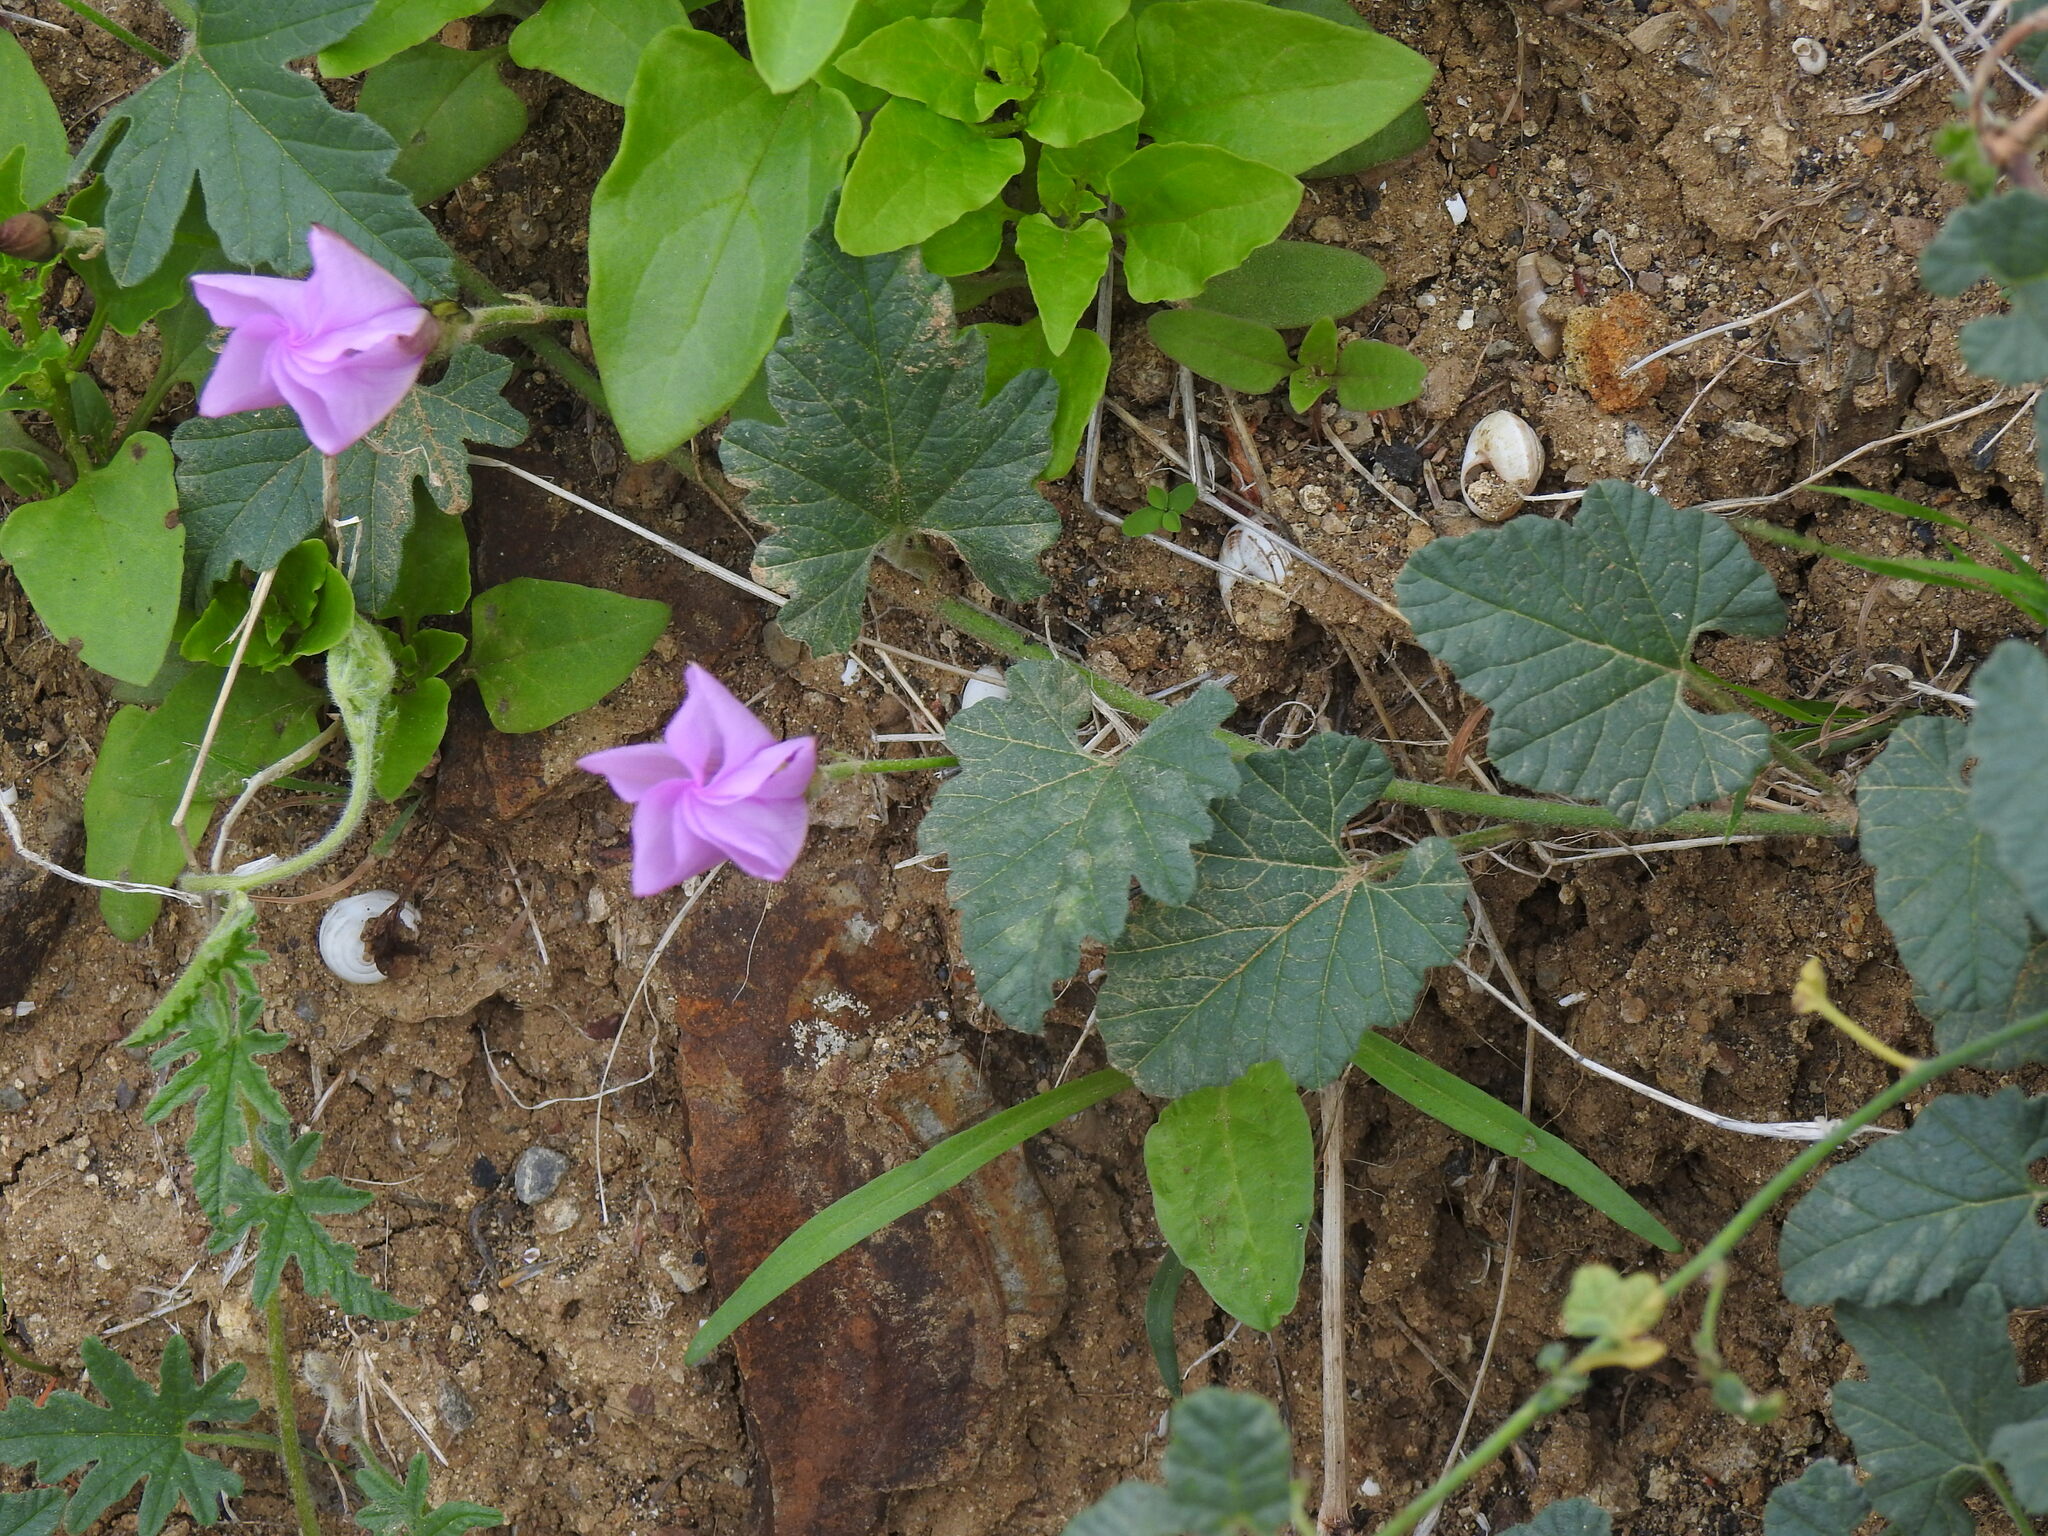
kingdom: Plantae
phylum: Tracheophyta
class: Magnoliopsida
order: Solanales
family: Convolvulaceae
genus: Convolvulus
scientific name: Convolvulus althaeoides
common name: Mallow bindweed
